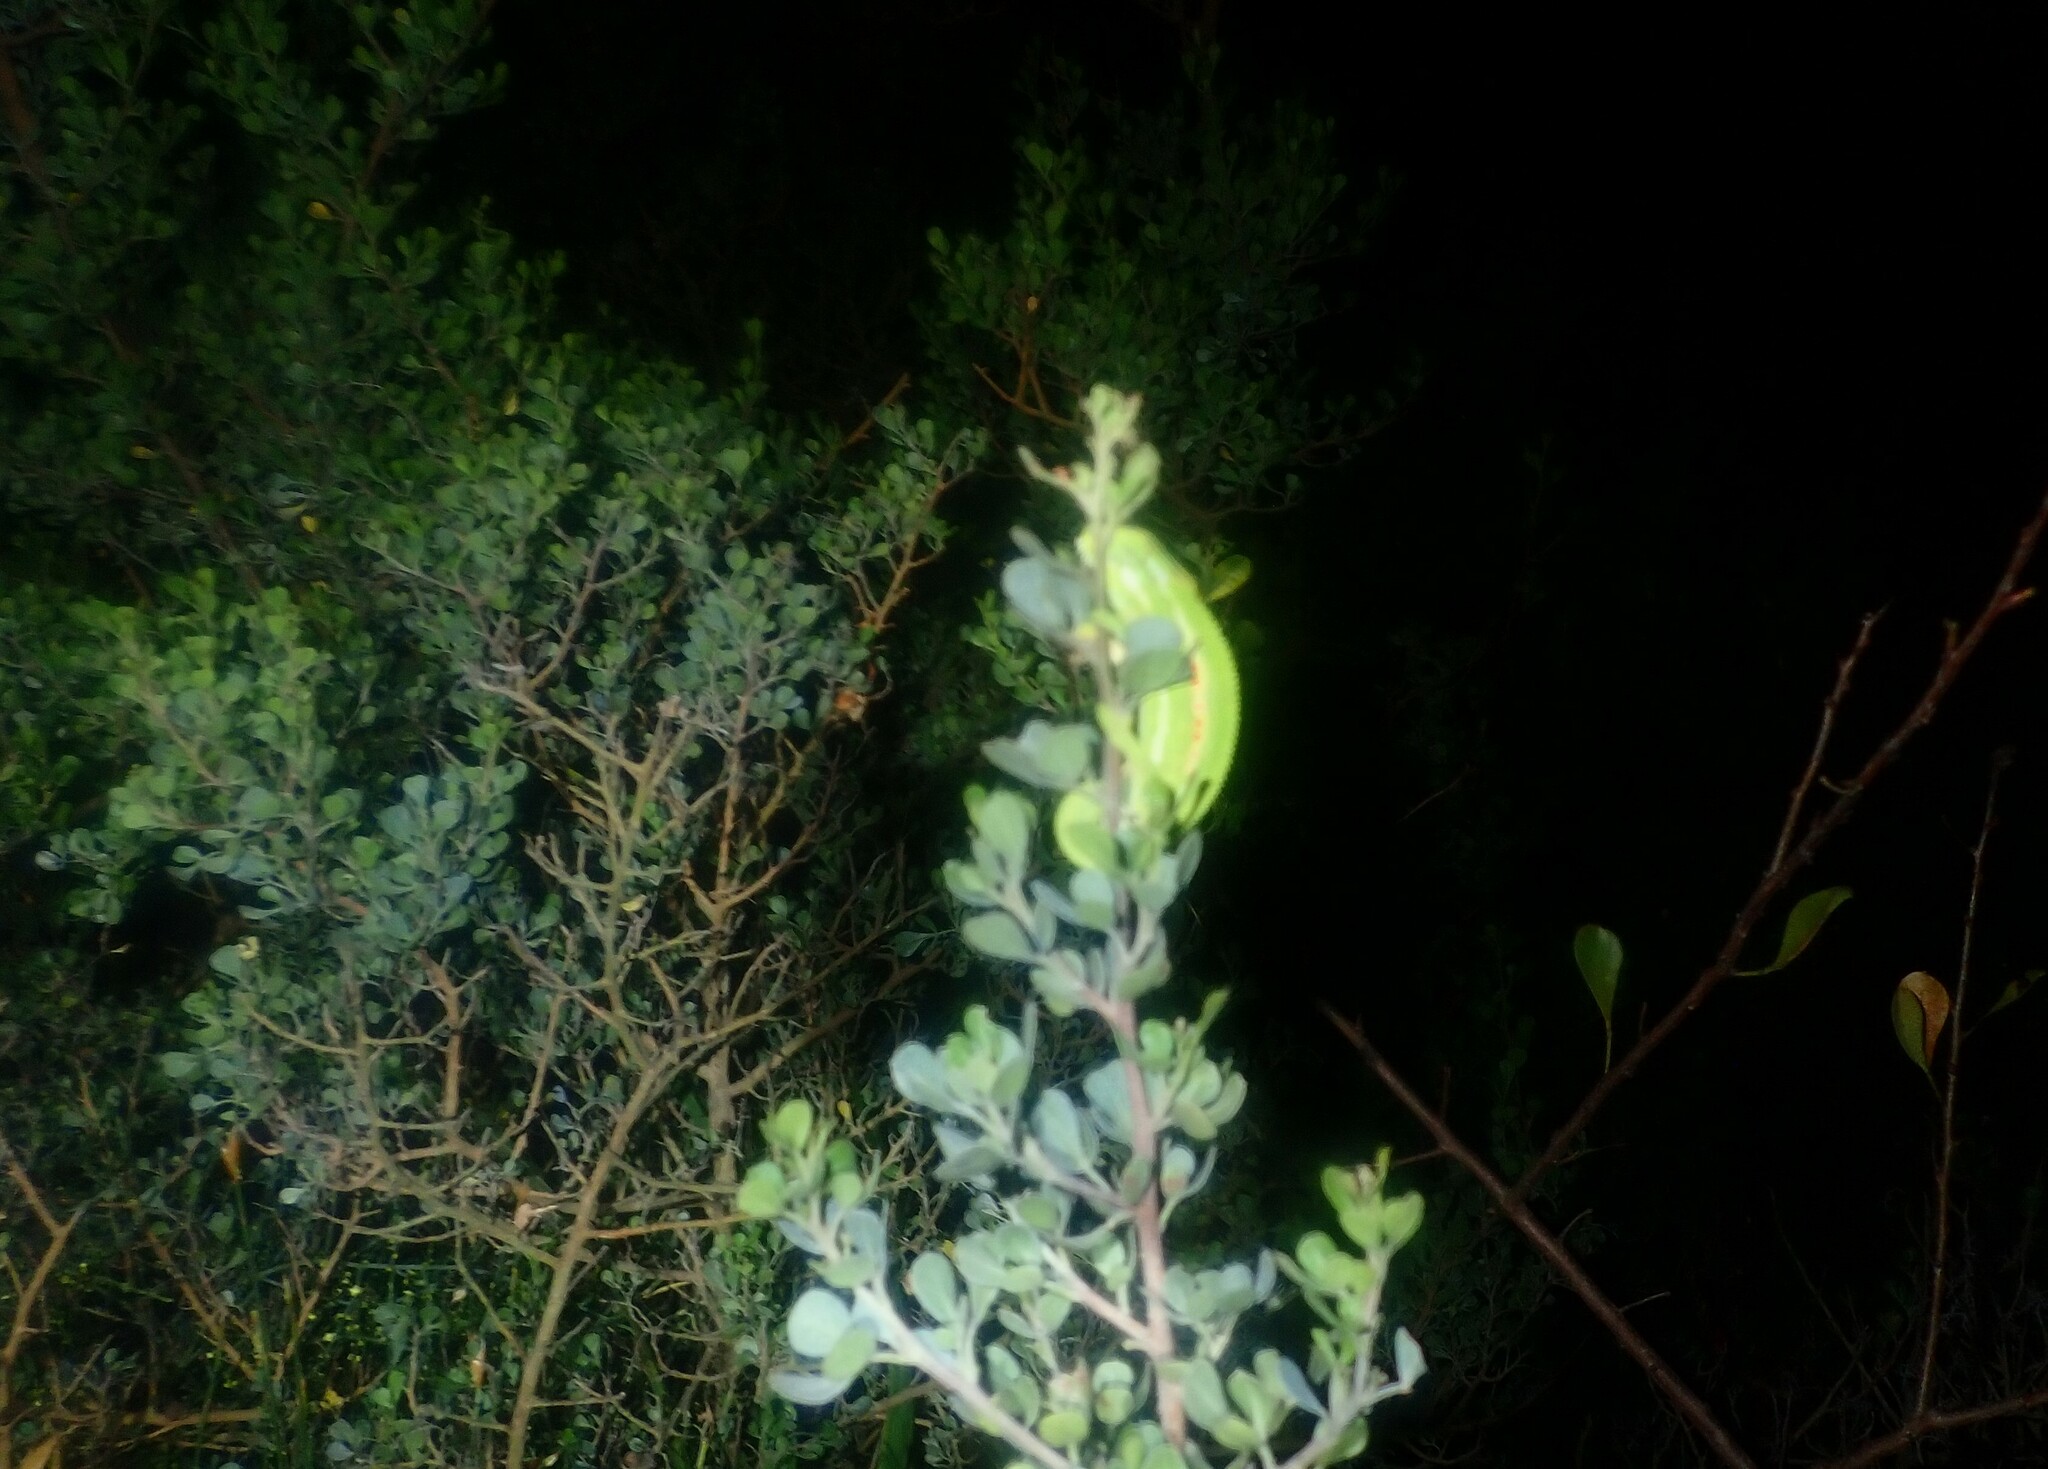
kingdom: Animalia
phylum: Chordata
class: Squamata
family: Chamaeleonidae
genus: Bradypodion
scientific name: Bradypodion pumilum
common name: Cape dwarf chameleon
